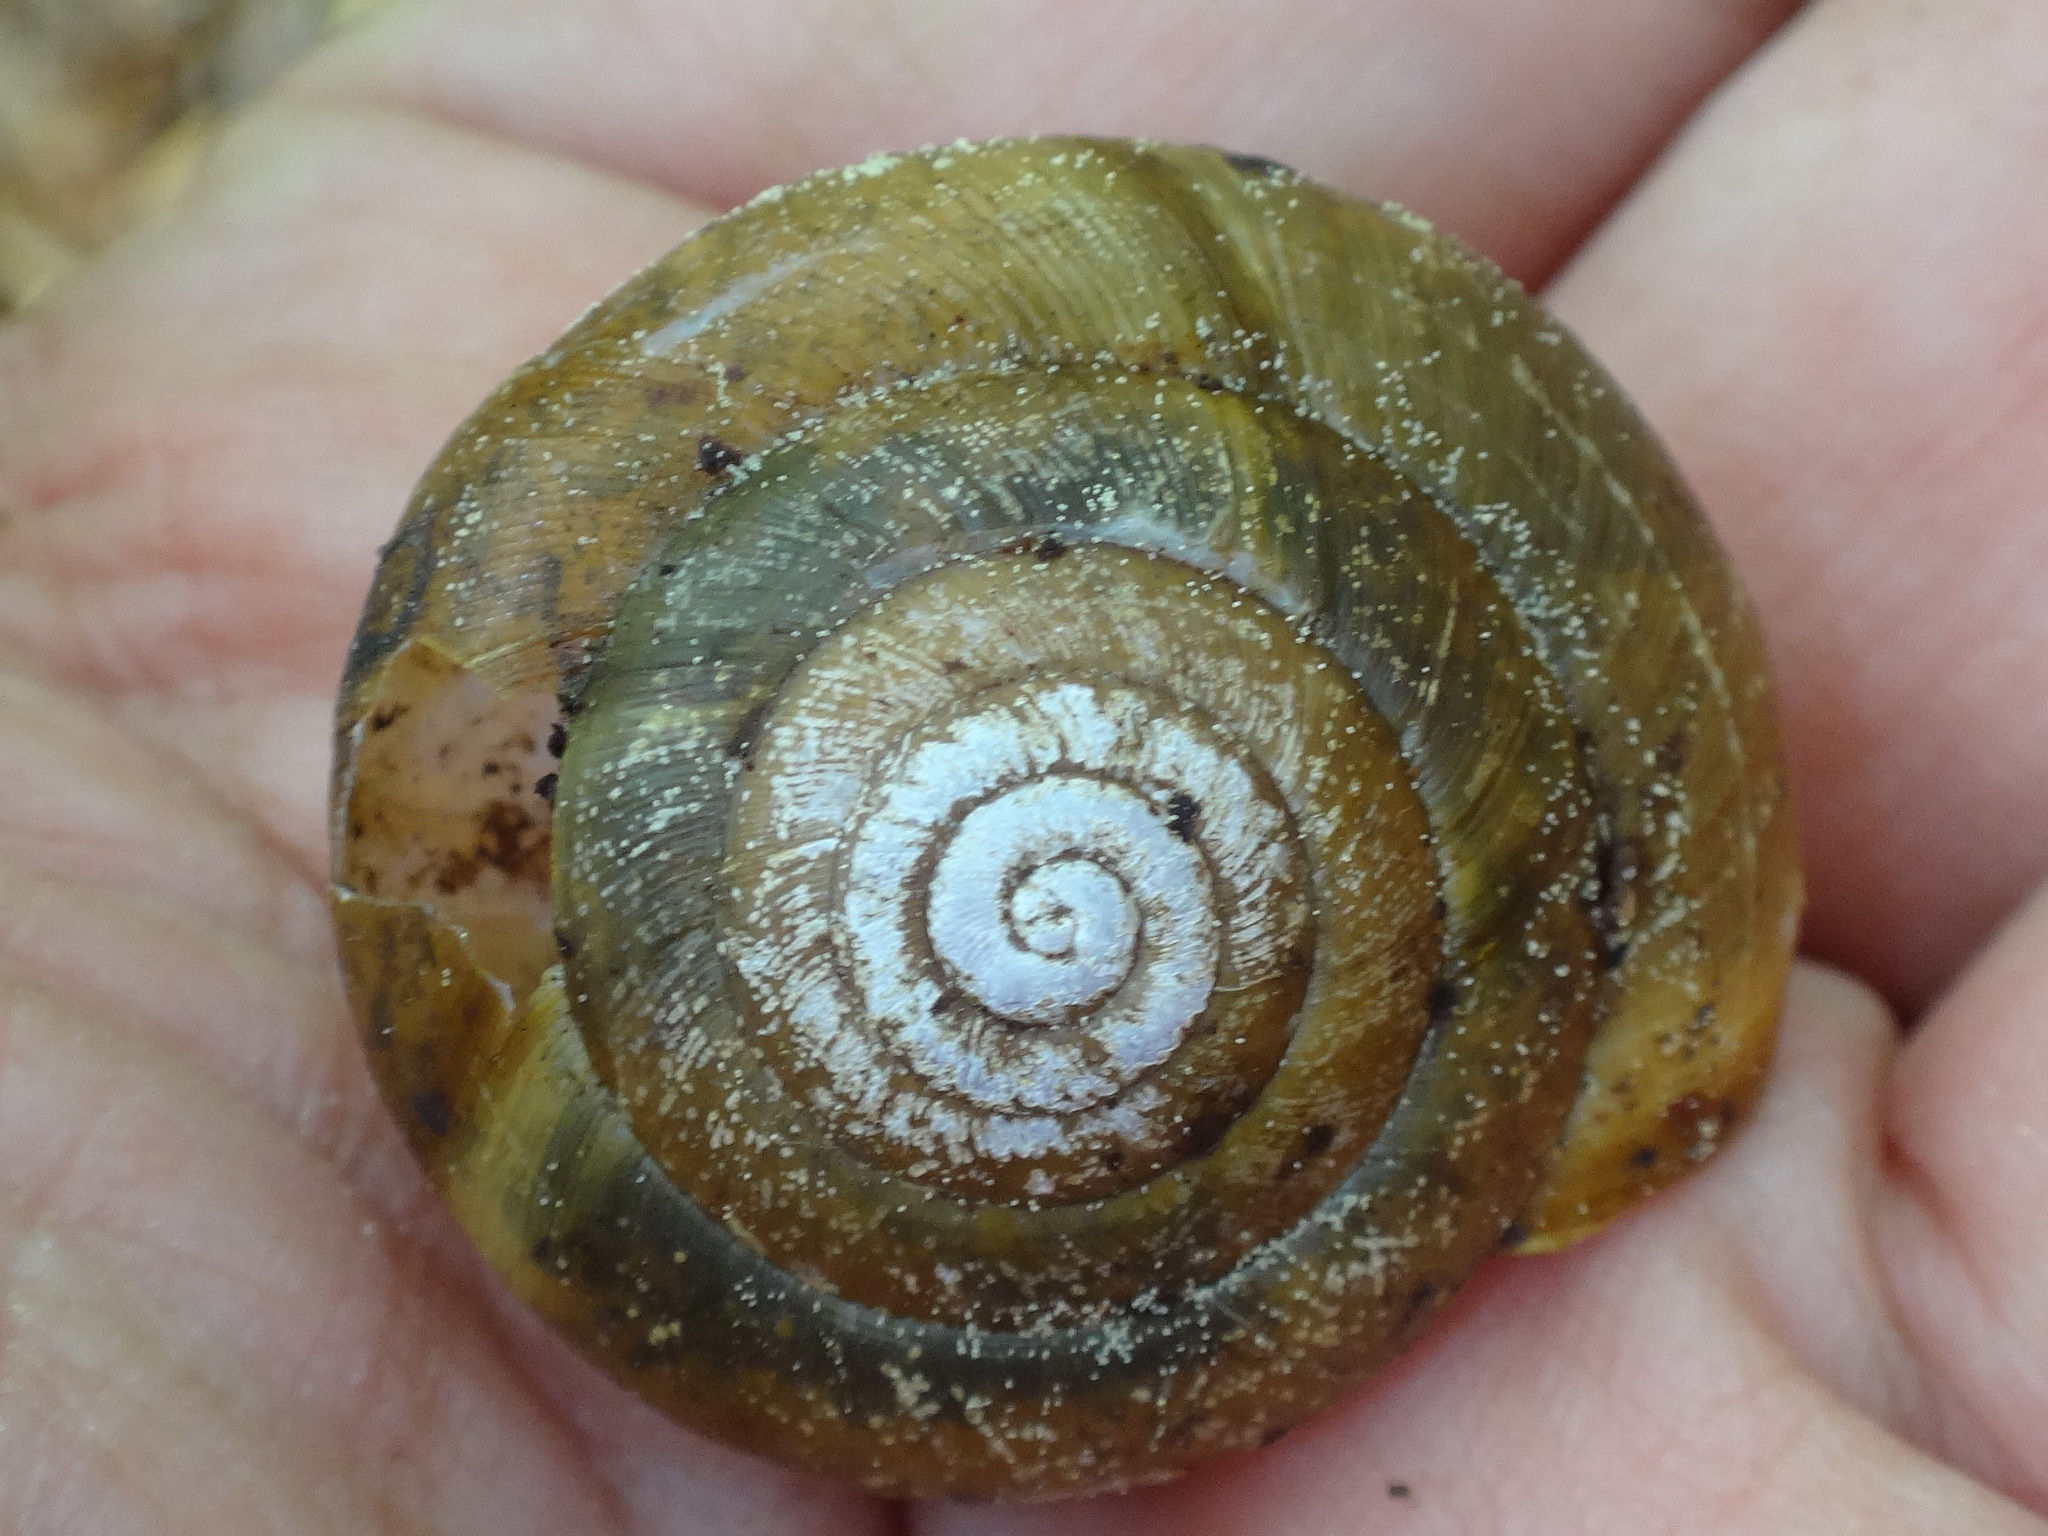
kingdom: Animalia
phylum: Mollusca
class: Gastropoda
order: Stylommatophora
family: Zonitidae
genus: Aegopis
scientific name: Aegopis verticillus
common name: Giant glass snail
